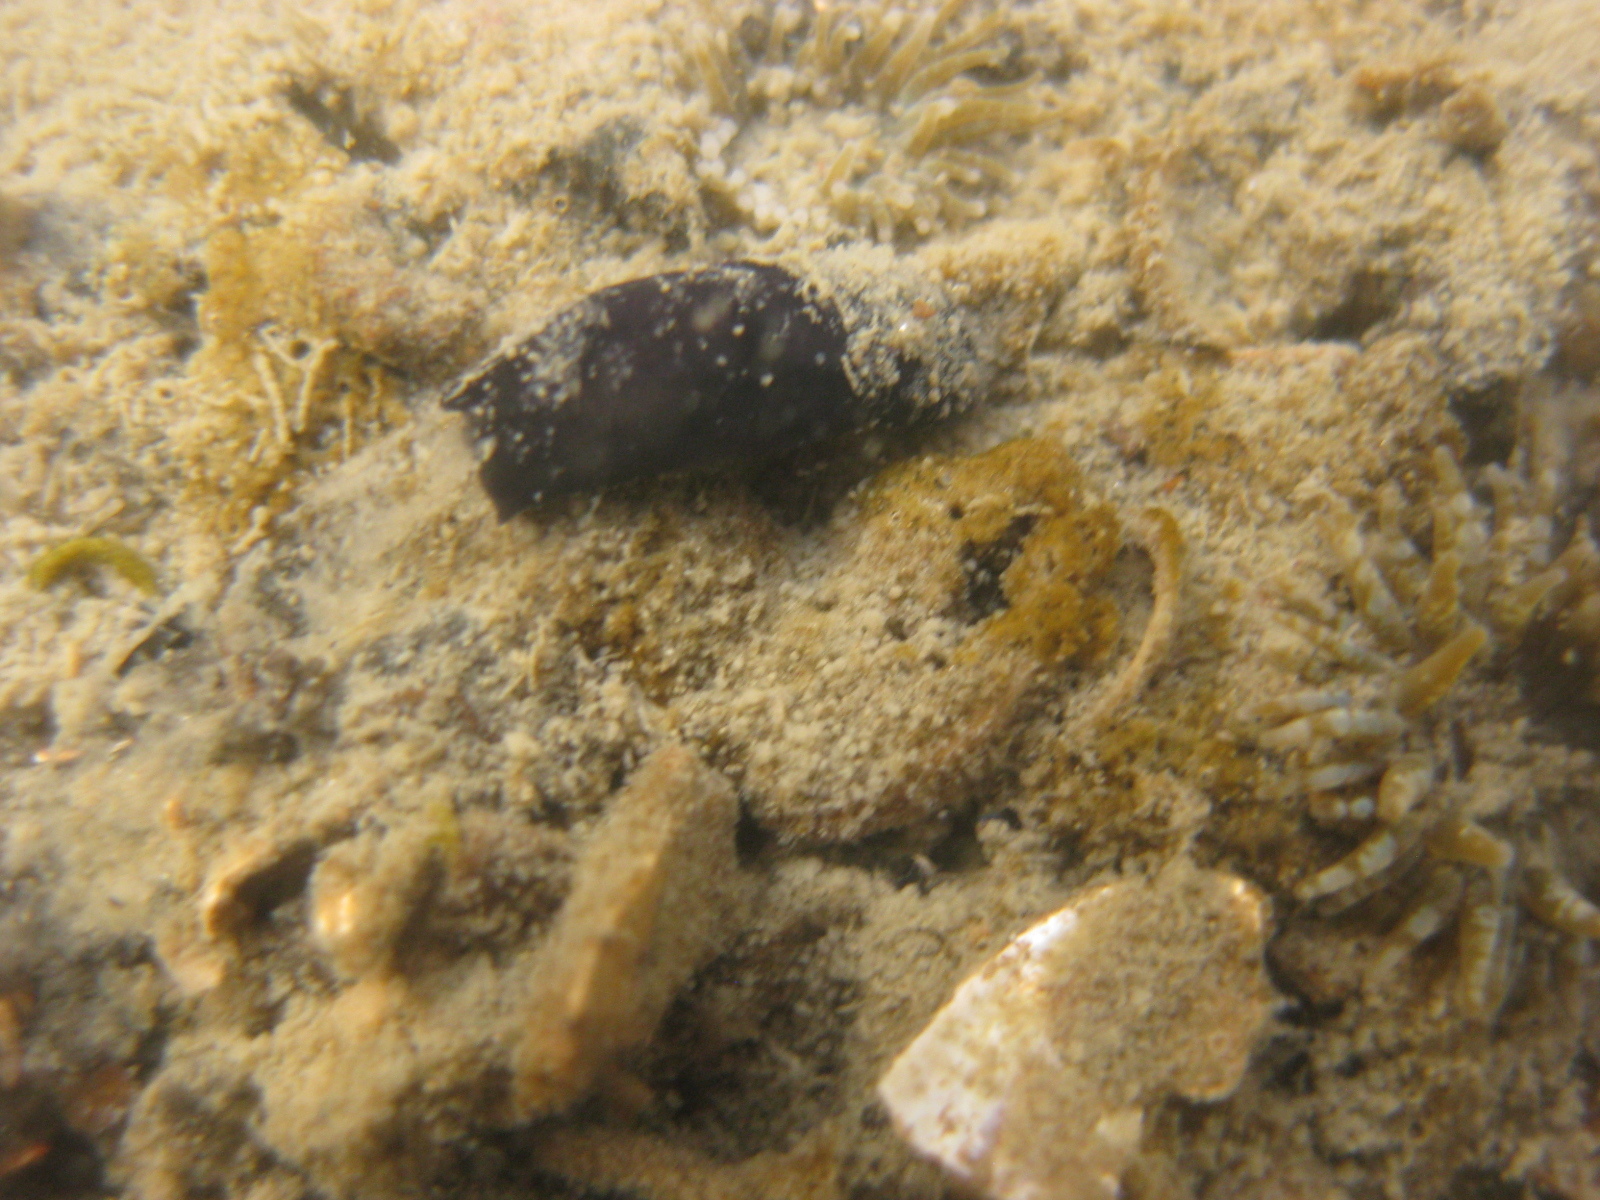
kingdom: Animalia
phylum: Mollusca
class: Gastropoda
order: Cephalaspidea
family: Aglajidae
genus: Melanochlamys
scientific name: Melanochlamys cylindrica
